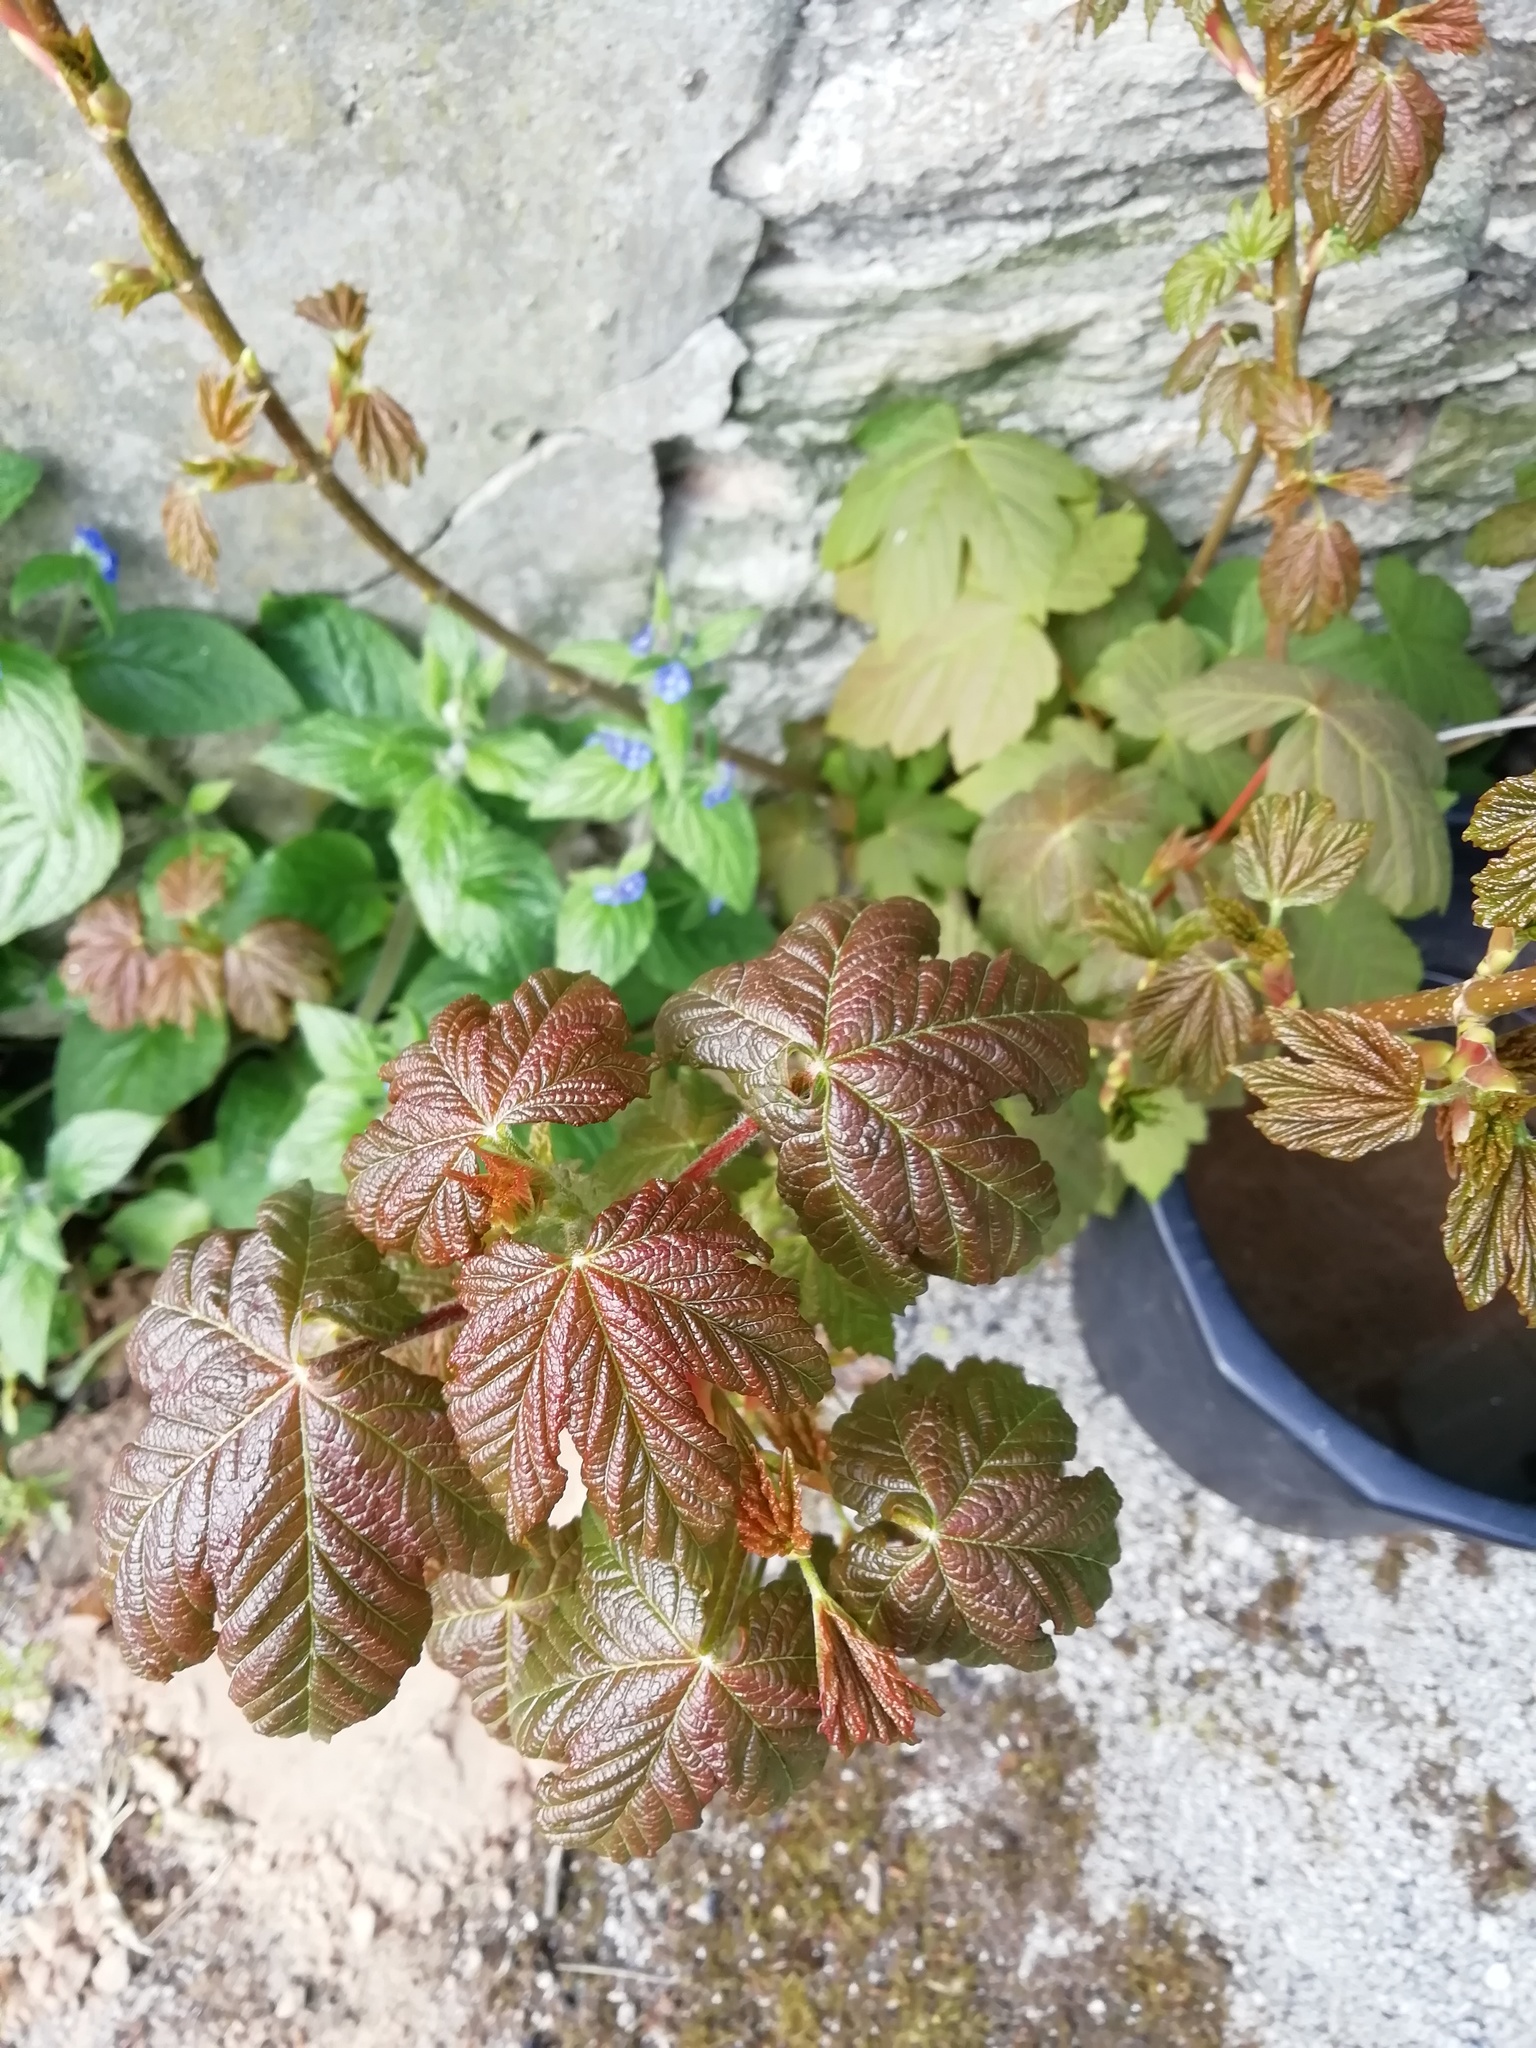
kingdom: Plantae
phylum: Tracheophyta
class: Magnoliopsida
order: Sapindales
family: Sapindaceae
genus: Acer
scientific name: Acer pseudoplatanus
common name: Sycamore
